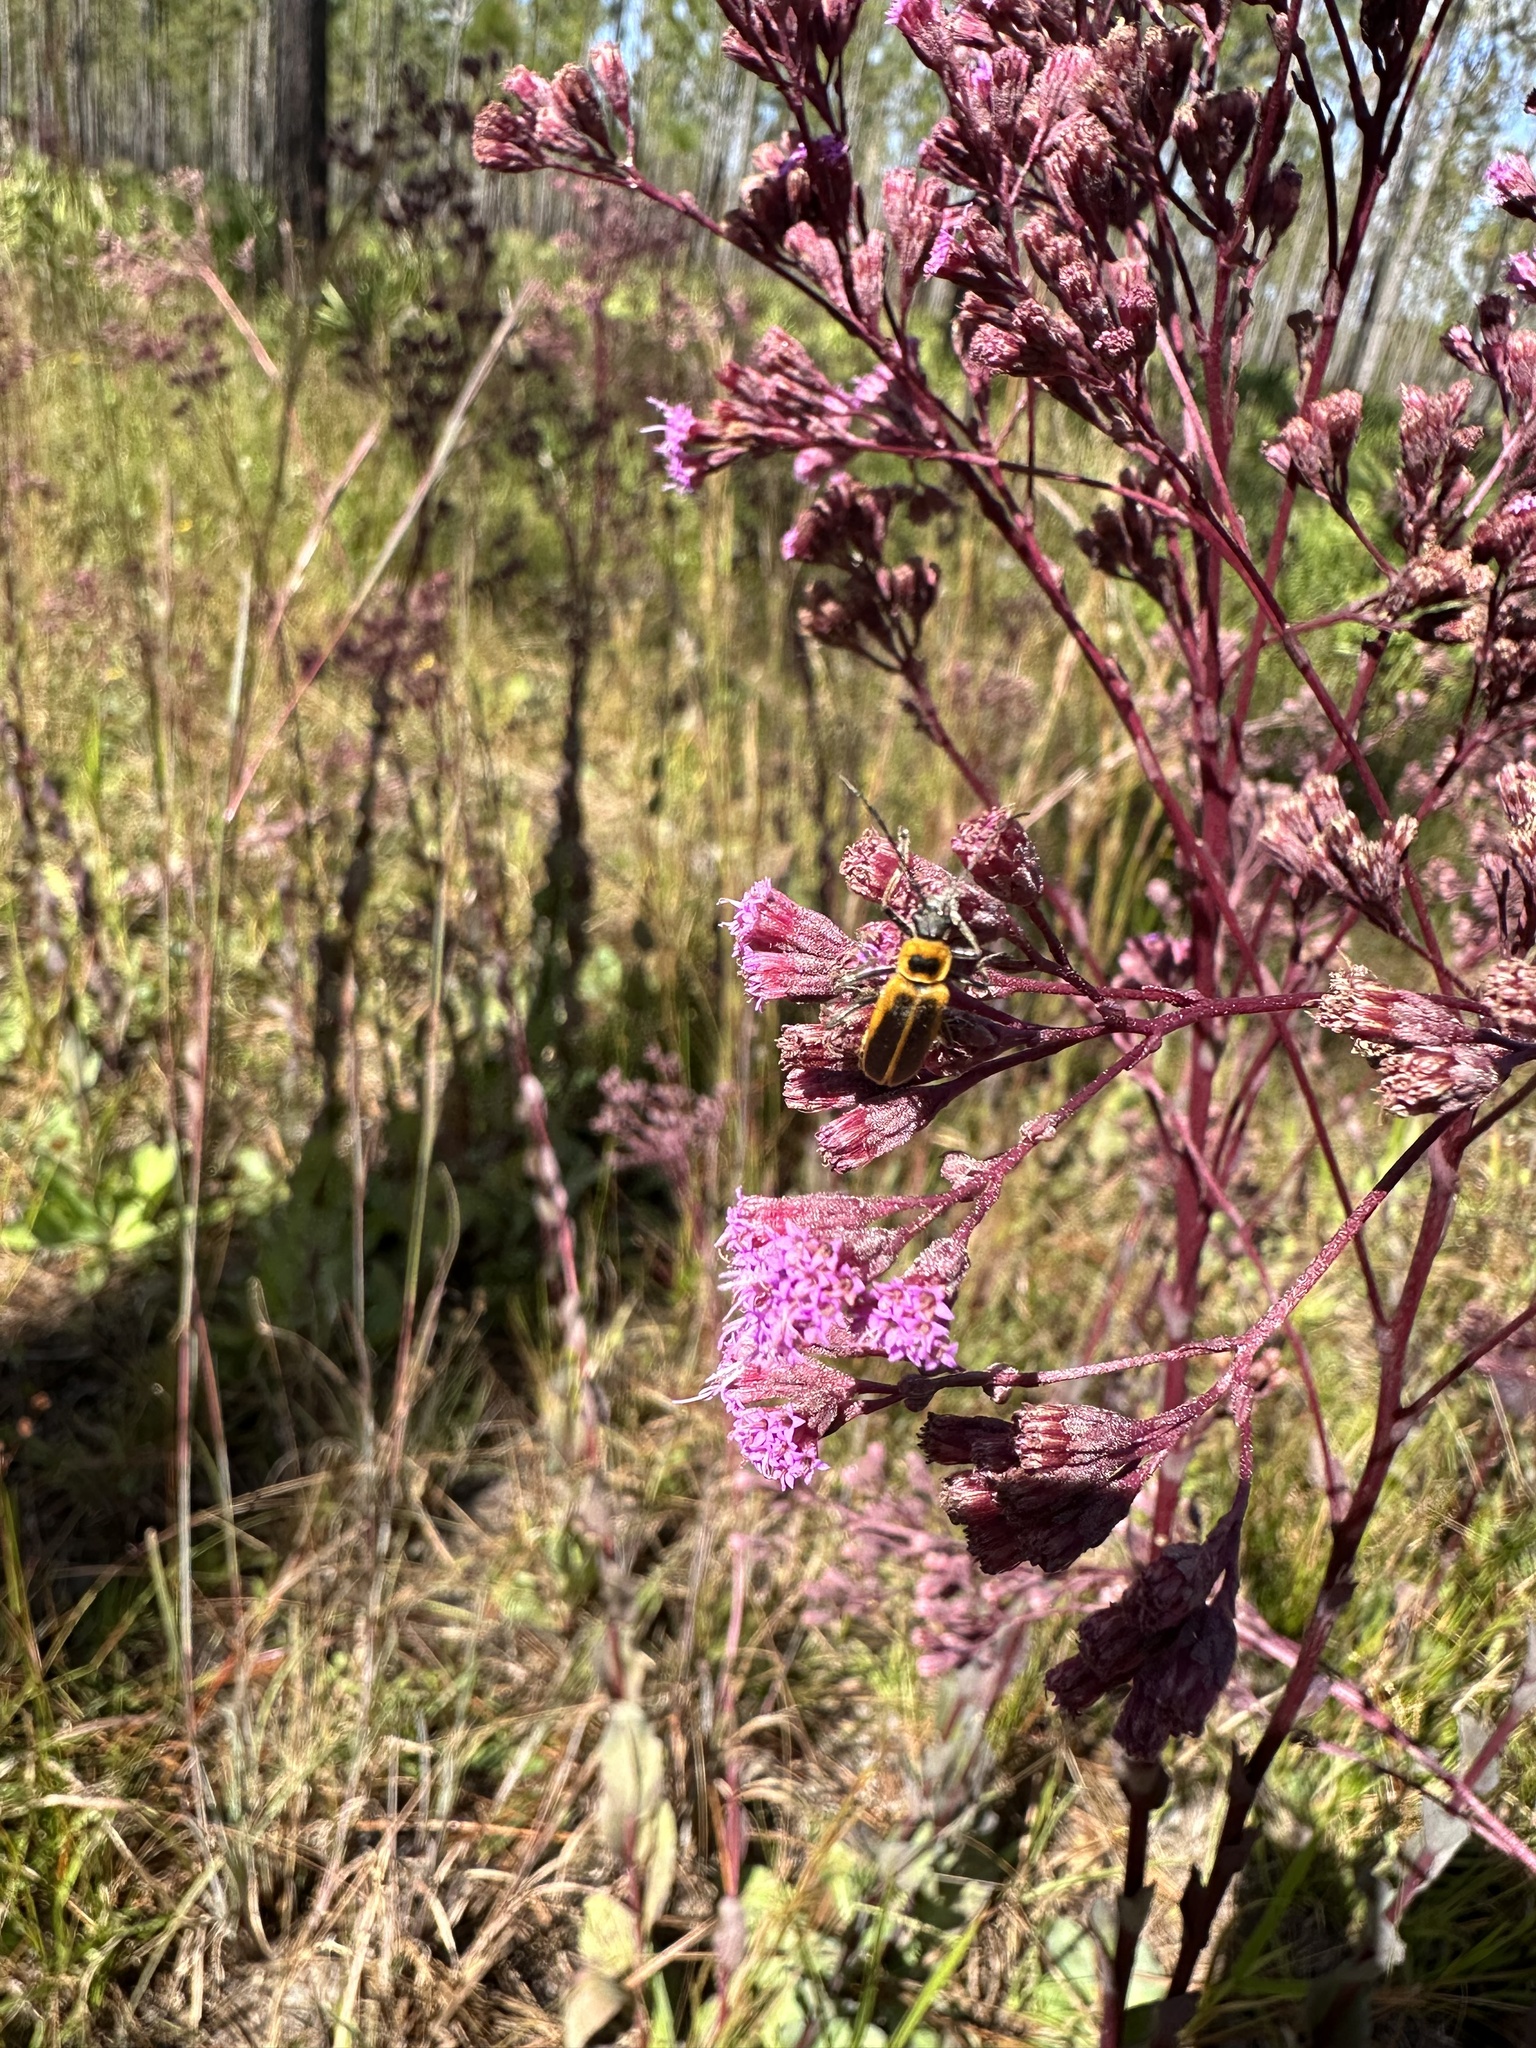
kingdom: Animalia
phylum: Arthropoda
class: Insecta
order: Coleoptera
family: Cantharidae
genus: Chauliognathus
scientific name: Chauliognathus pensylvanicus
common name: Goldenrod soldier beetle
